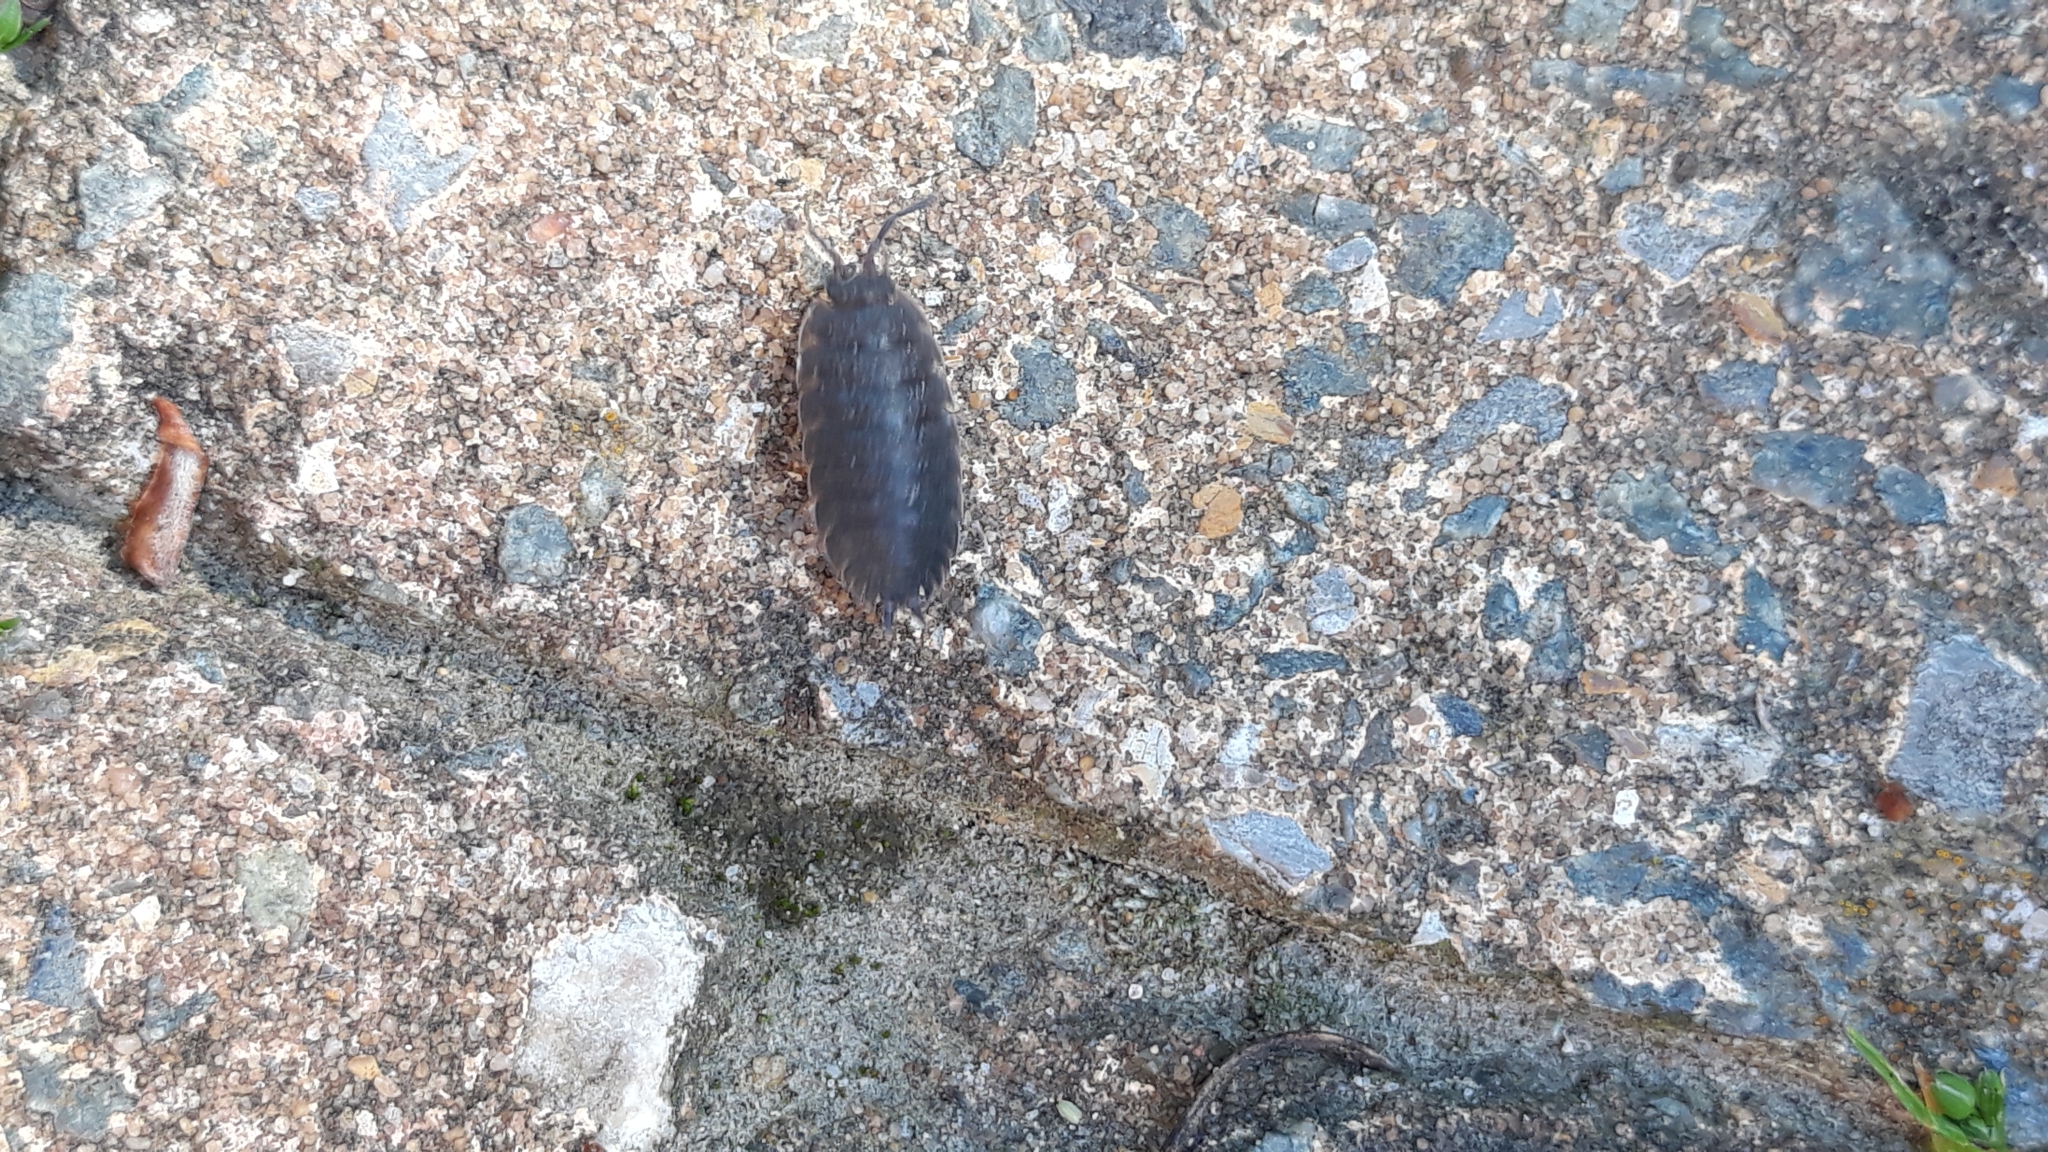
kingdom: Animalia
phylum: Arthropoda
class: Malacostraca
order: Isopoda
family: Porcellionidae
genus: Porcellio
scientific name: Porcellio scaber
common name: Common rough woodlouse
